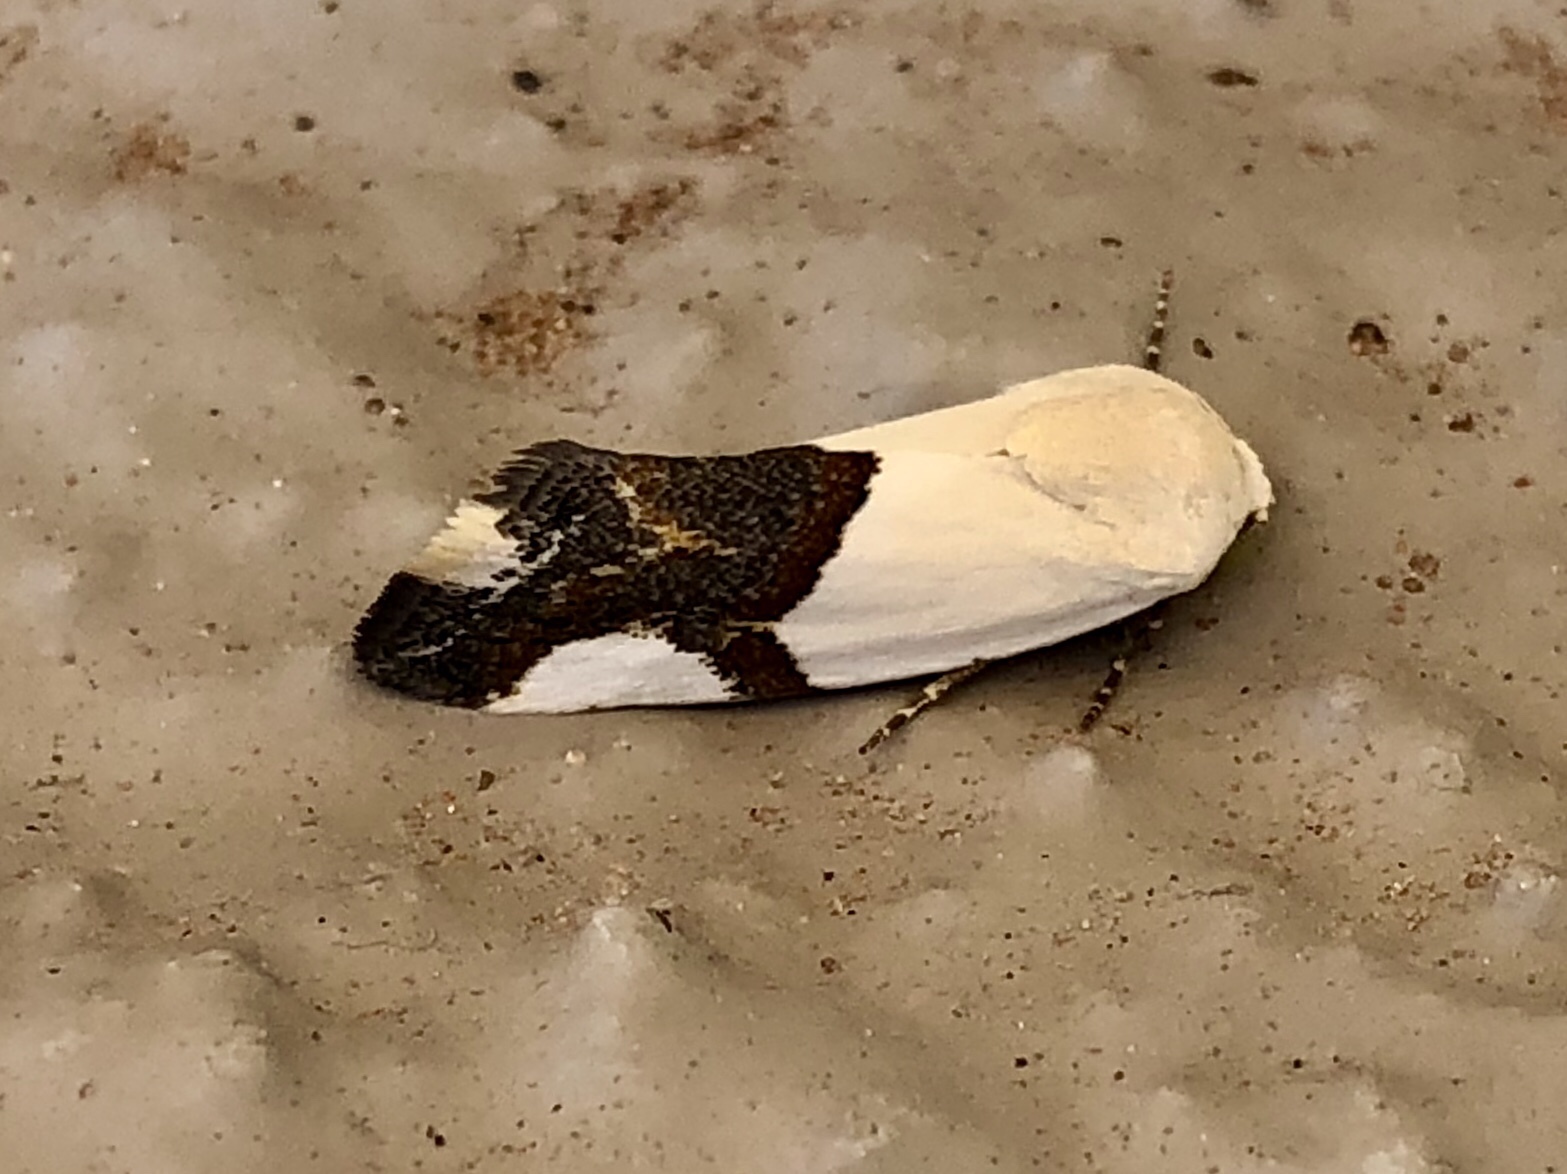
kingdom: Animalia
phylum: Arthropoda
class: Insecta
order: Lepidoptera
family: Noctuidae
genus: Acontia
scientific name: Acontia cuta
